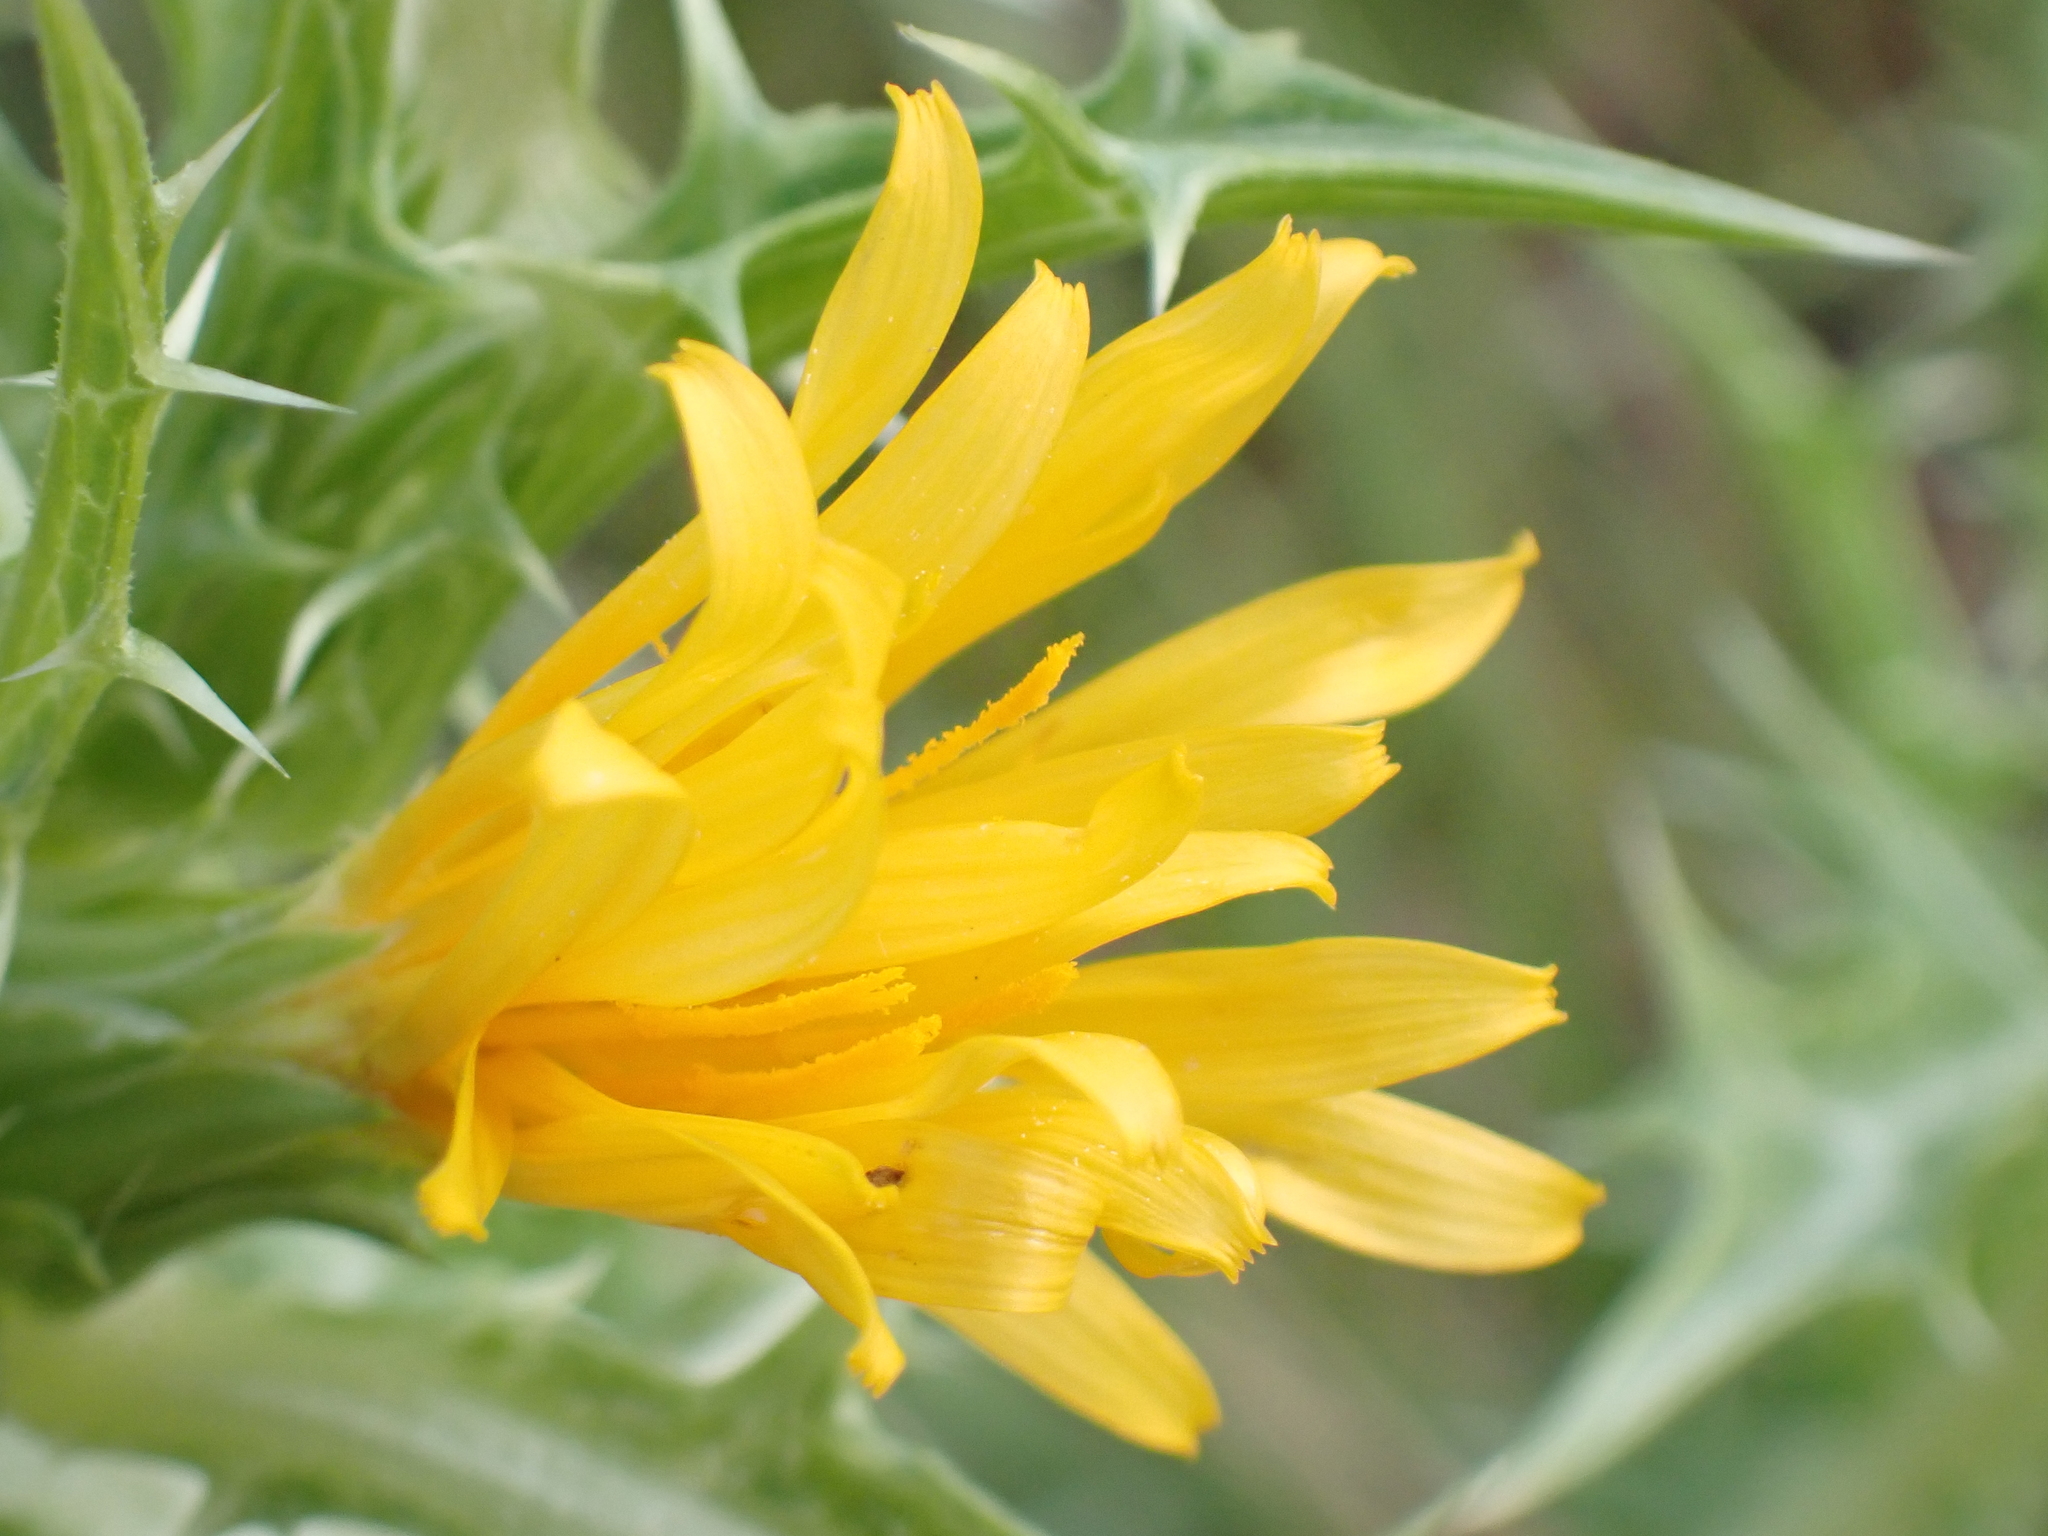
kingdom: Plantae
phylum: Tracheophyta
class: Magnoliopsida
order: Asterales
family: Asteraceae
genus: Scolymus
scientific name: Scolymus hispanicus
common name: Golden thistle
